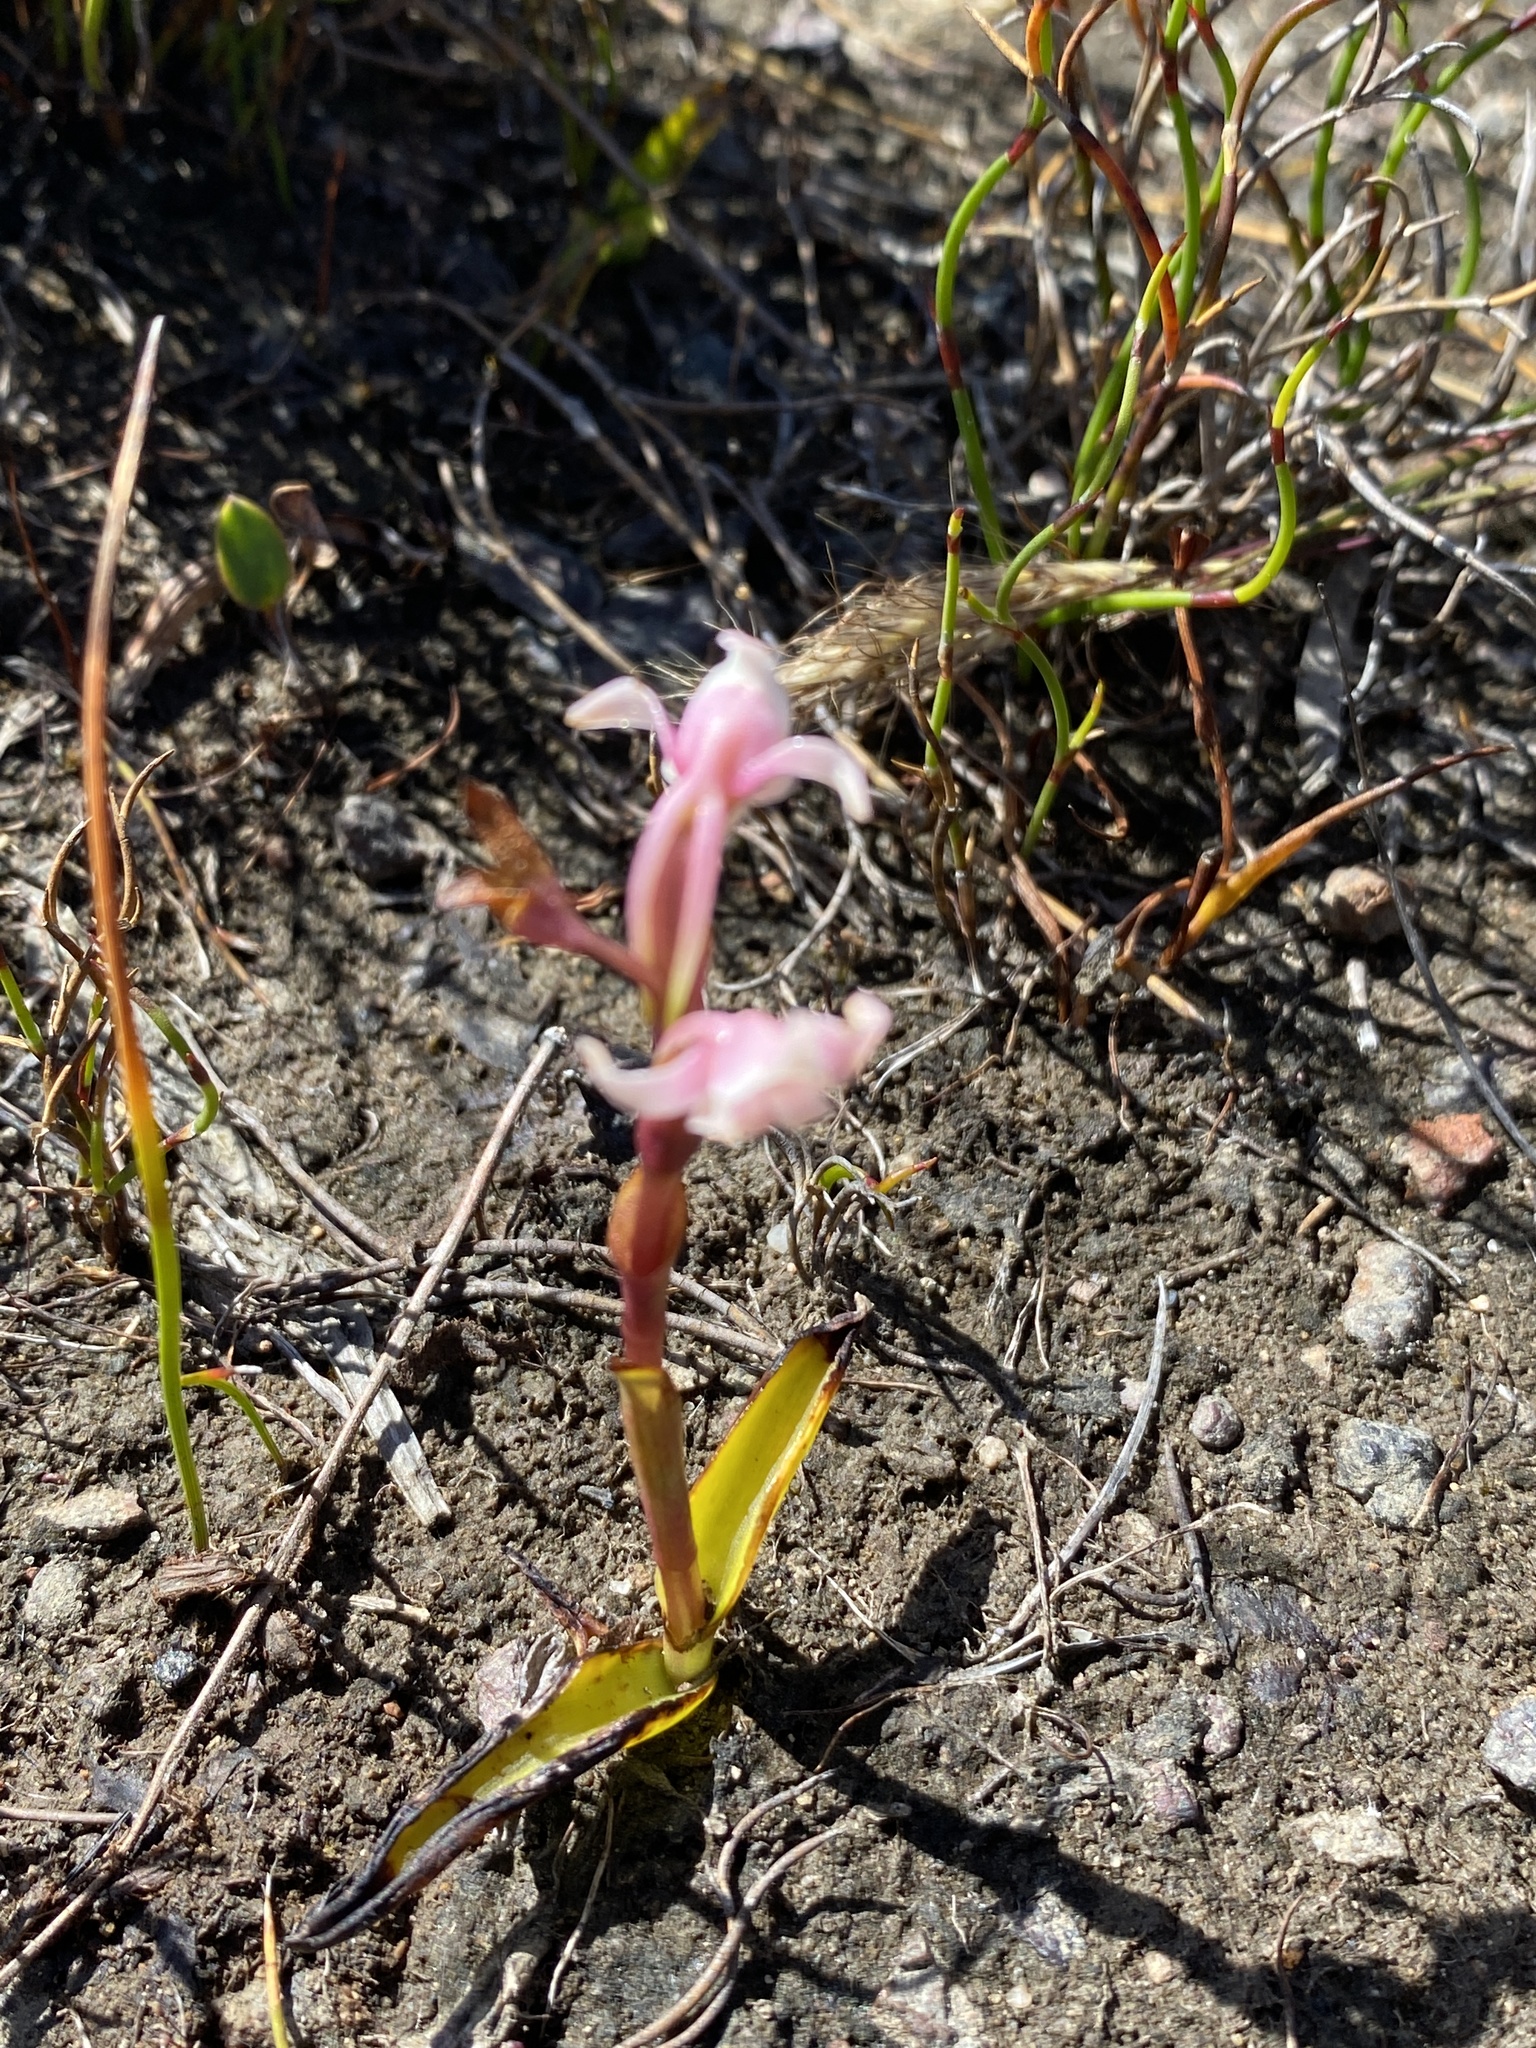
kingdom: Plantae
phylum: Tracheophyta
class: Liliopsida
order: Asparagales
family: Orchidaceae
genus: Satyrium
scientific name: Satyrium stenopetalum
